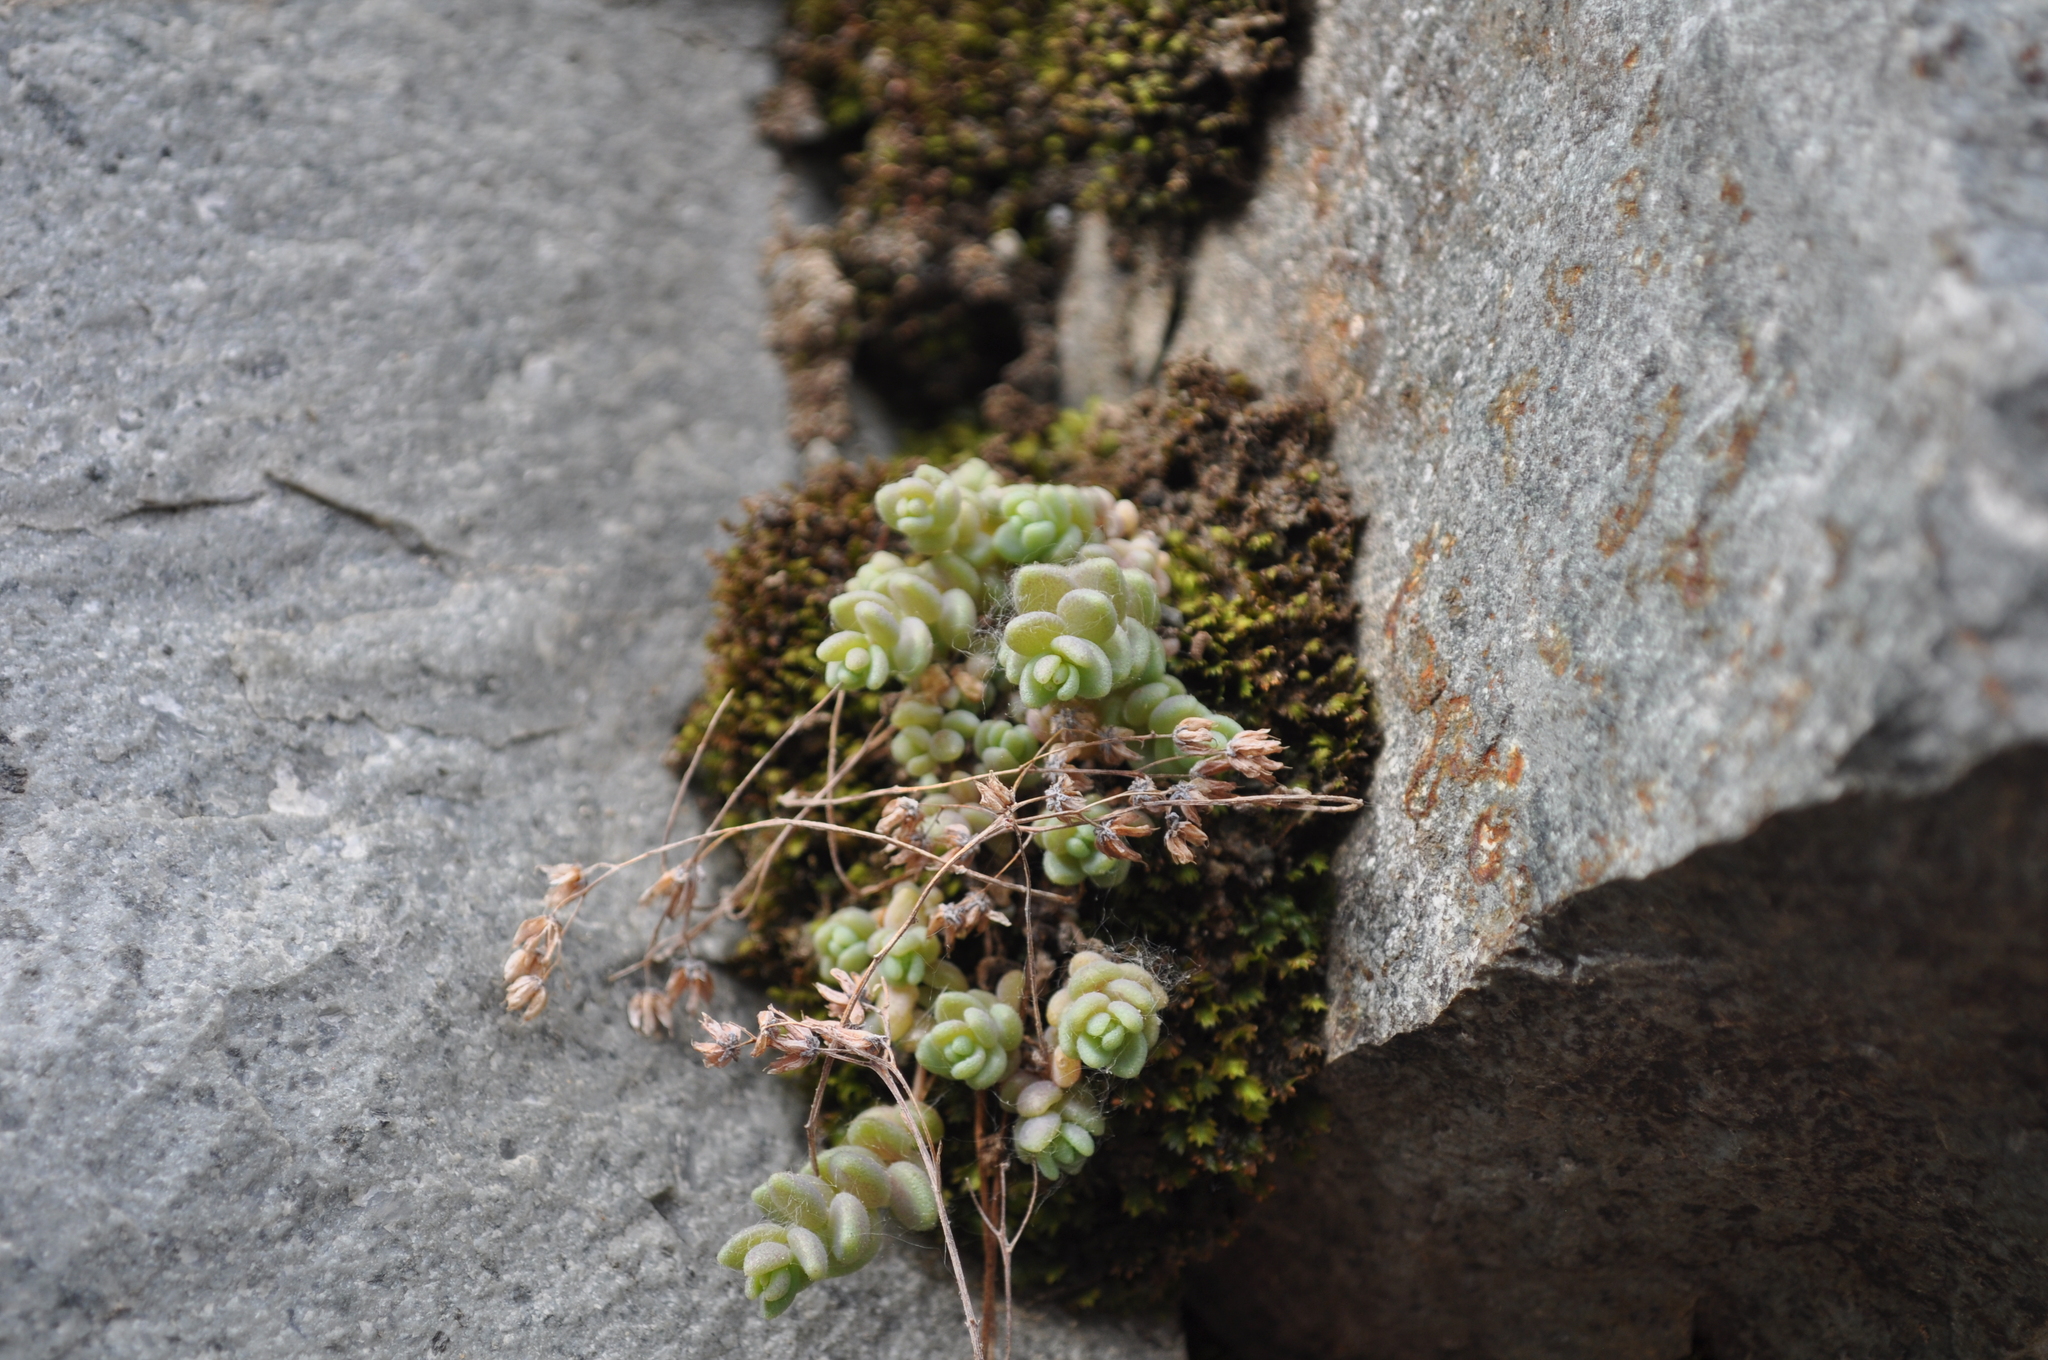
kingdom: Plantae
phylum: Tracheophyta
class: Magnoliopsida
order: Saxifragales
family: Crassulaceae
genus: Sedum
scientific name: Sedum dasyphyllum
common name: Thick-leaf stonecrop
